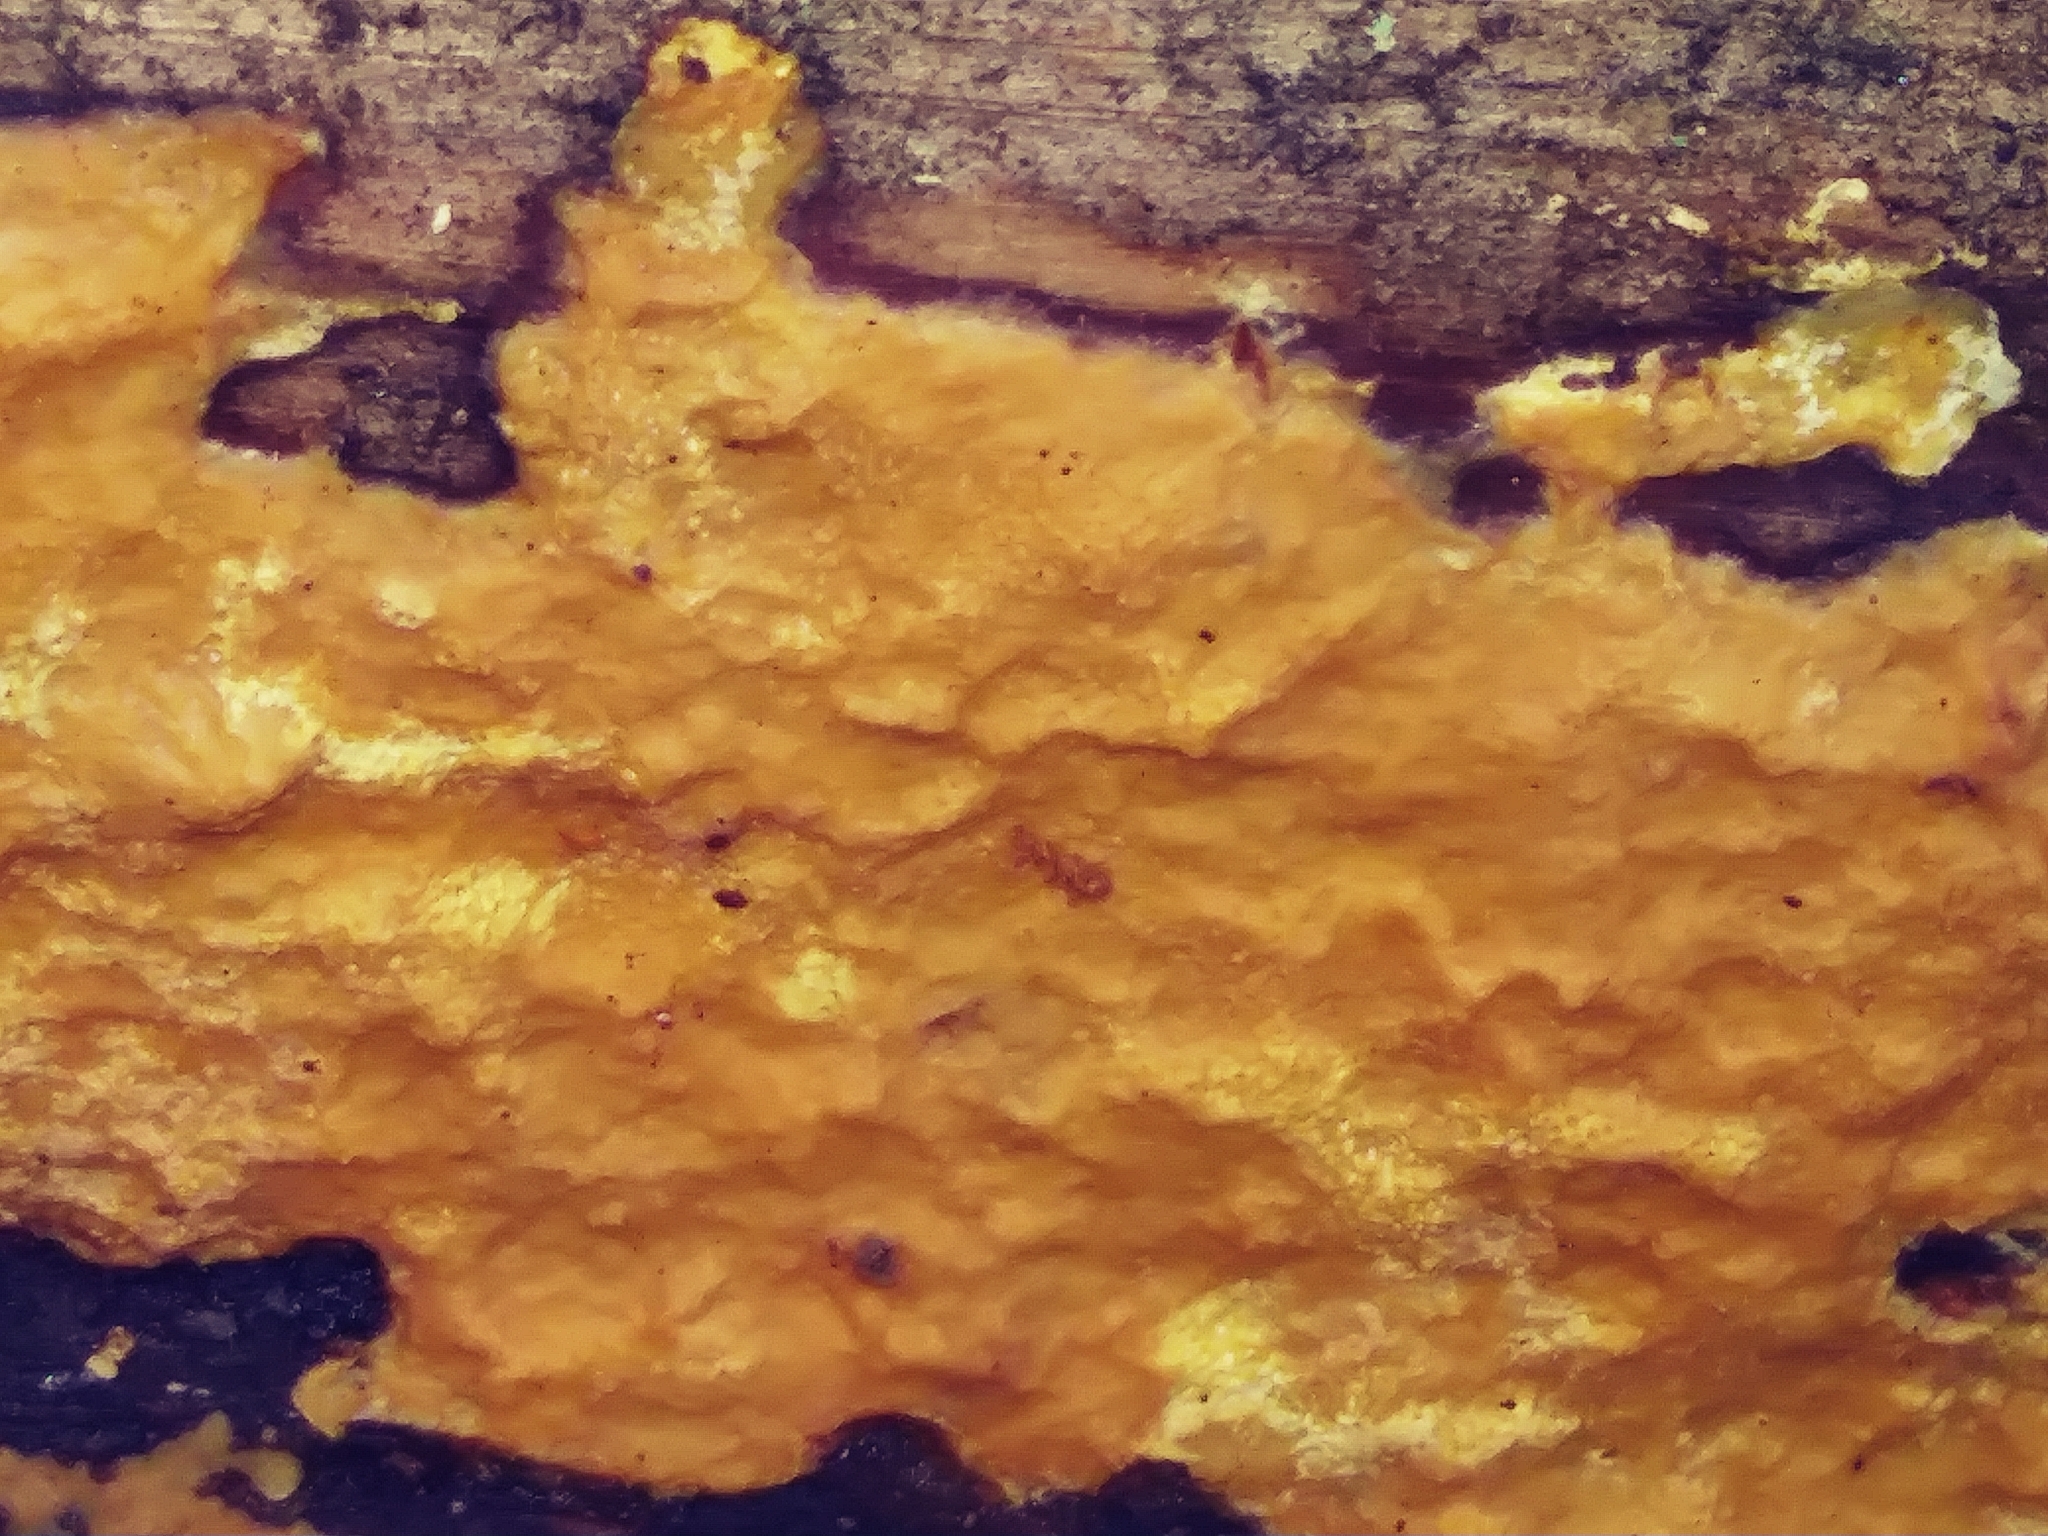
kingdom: Fungi
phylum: Basidiomycota
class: Agaricomycetes
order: Polyporales
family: Irpicaceae
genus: Ceriporia
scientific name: Ceriporia spissa
